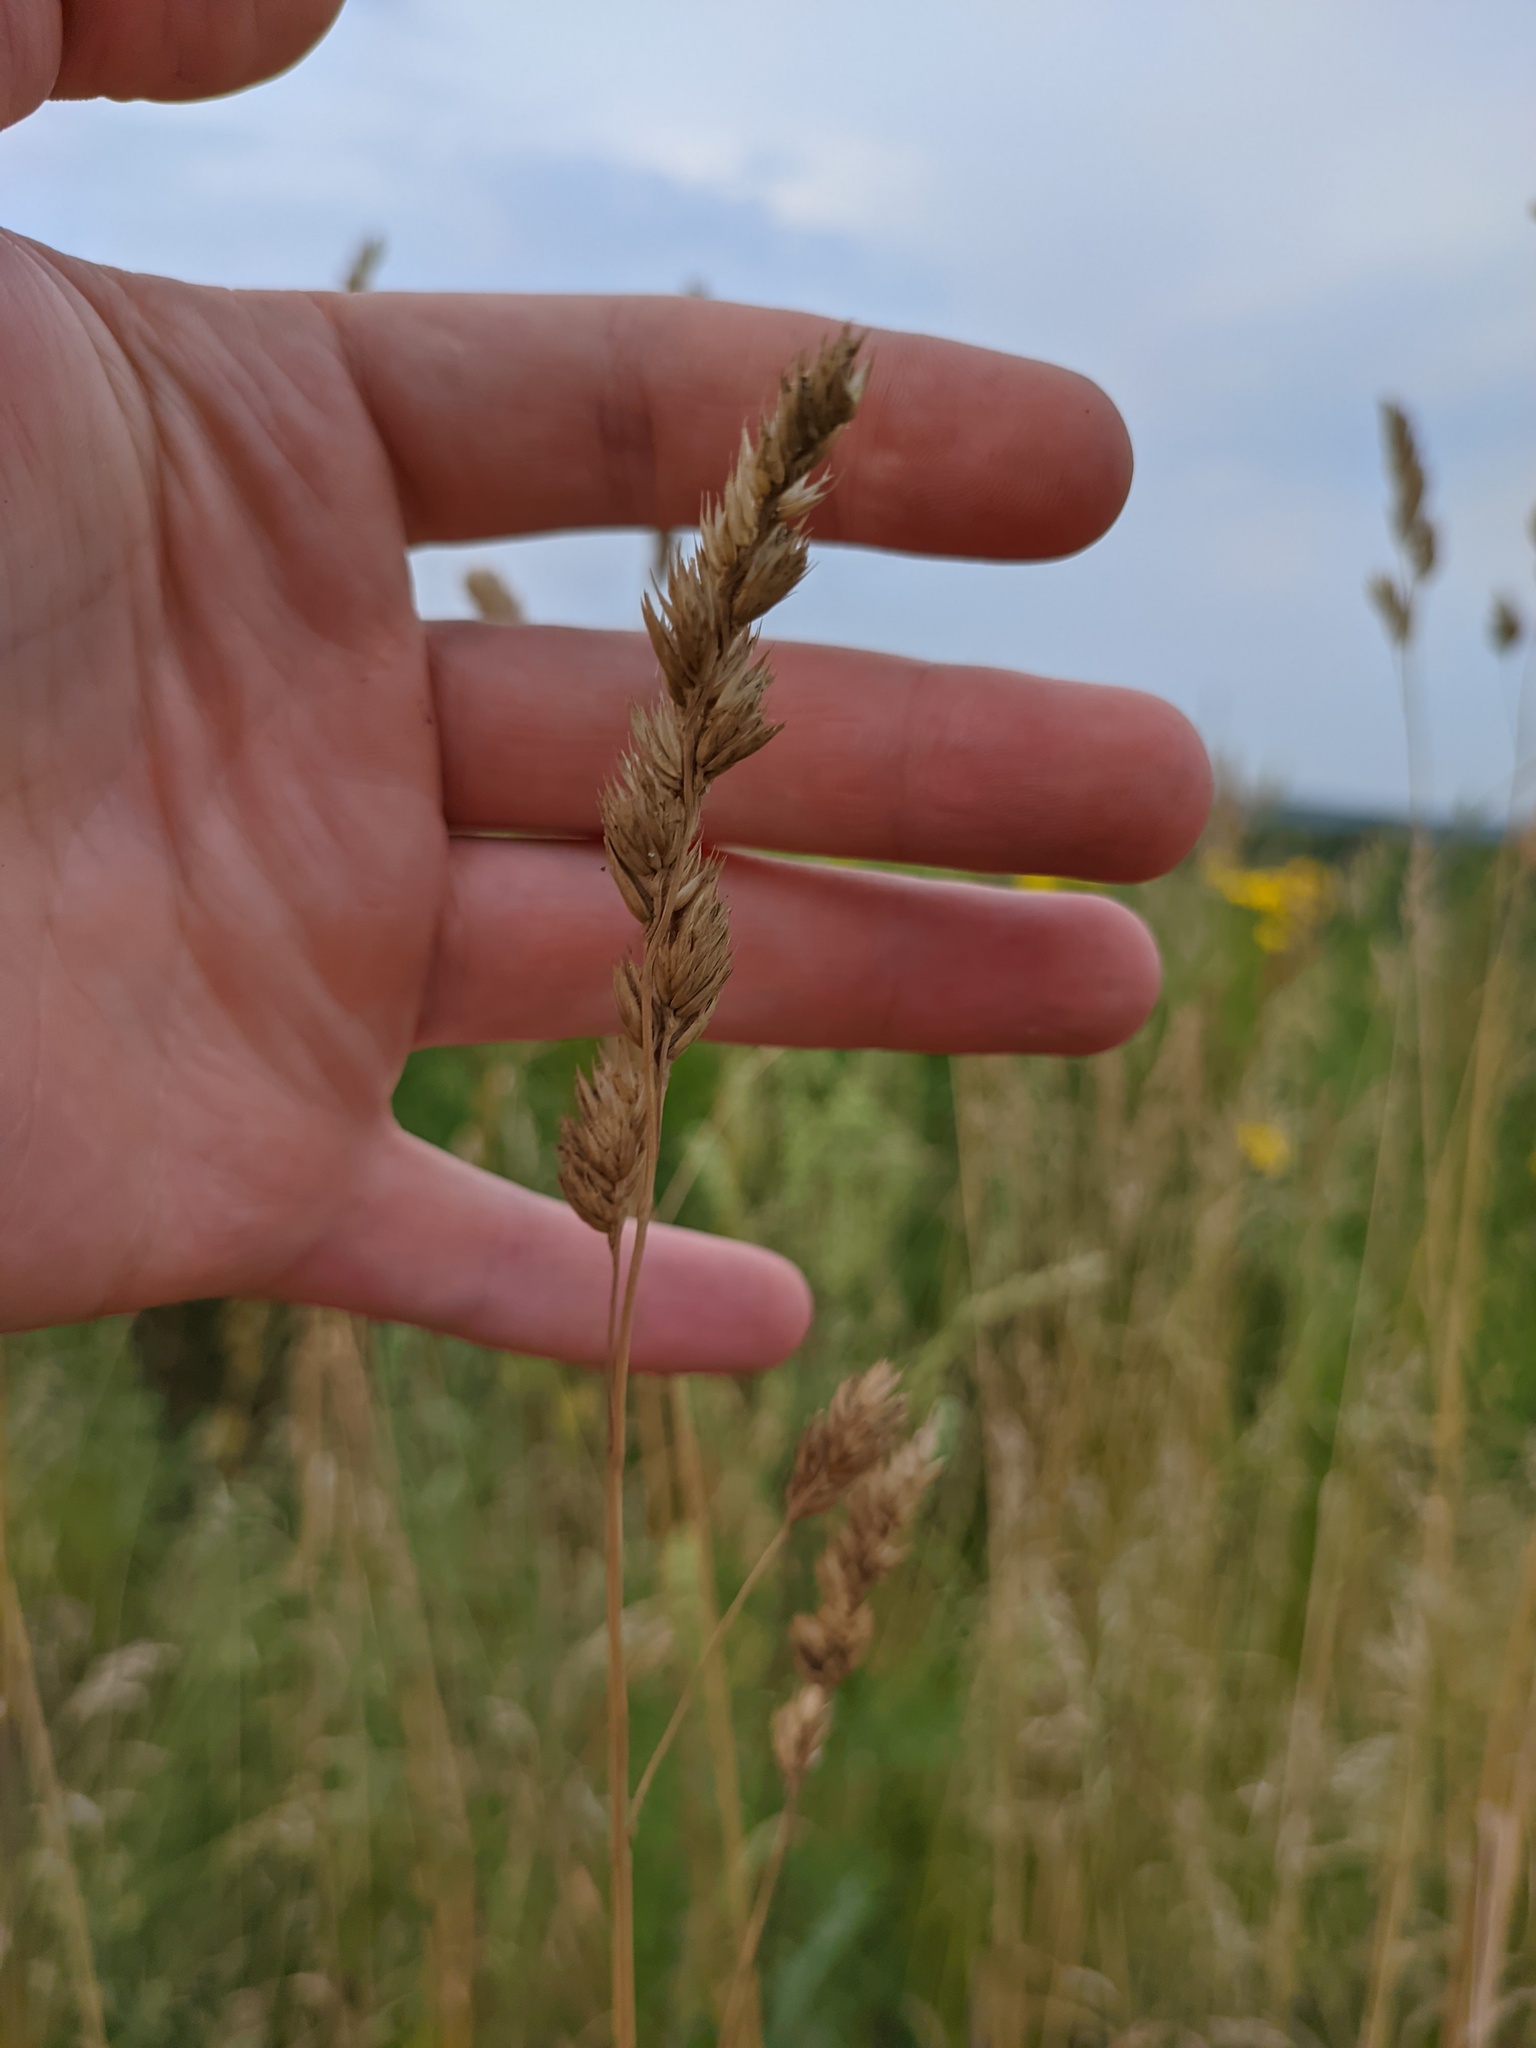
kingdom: Plantae
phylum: Tracheophyta
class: Liliopsida
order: Poales
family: Poaceae
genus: Dactylis
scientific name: Dactylis glomerata
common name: Orchardgrass
